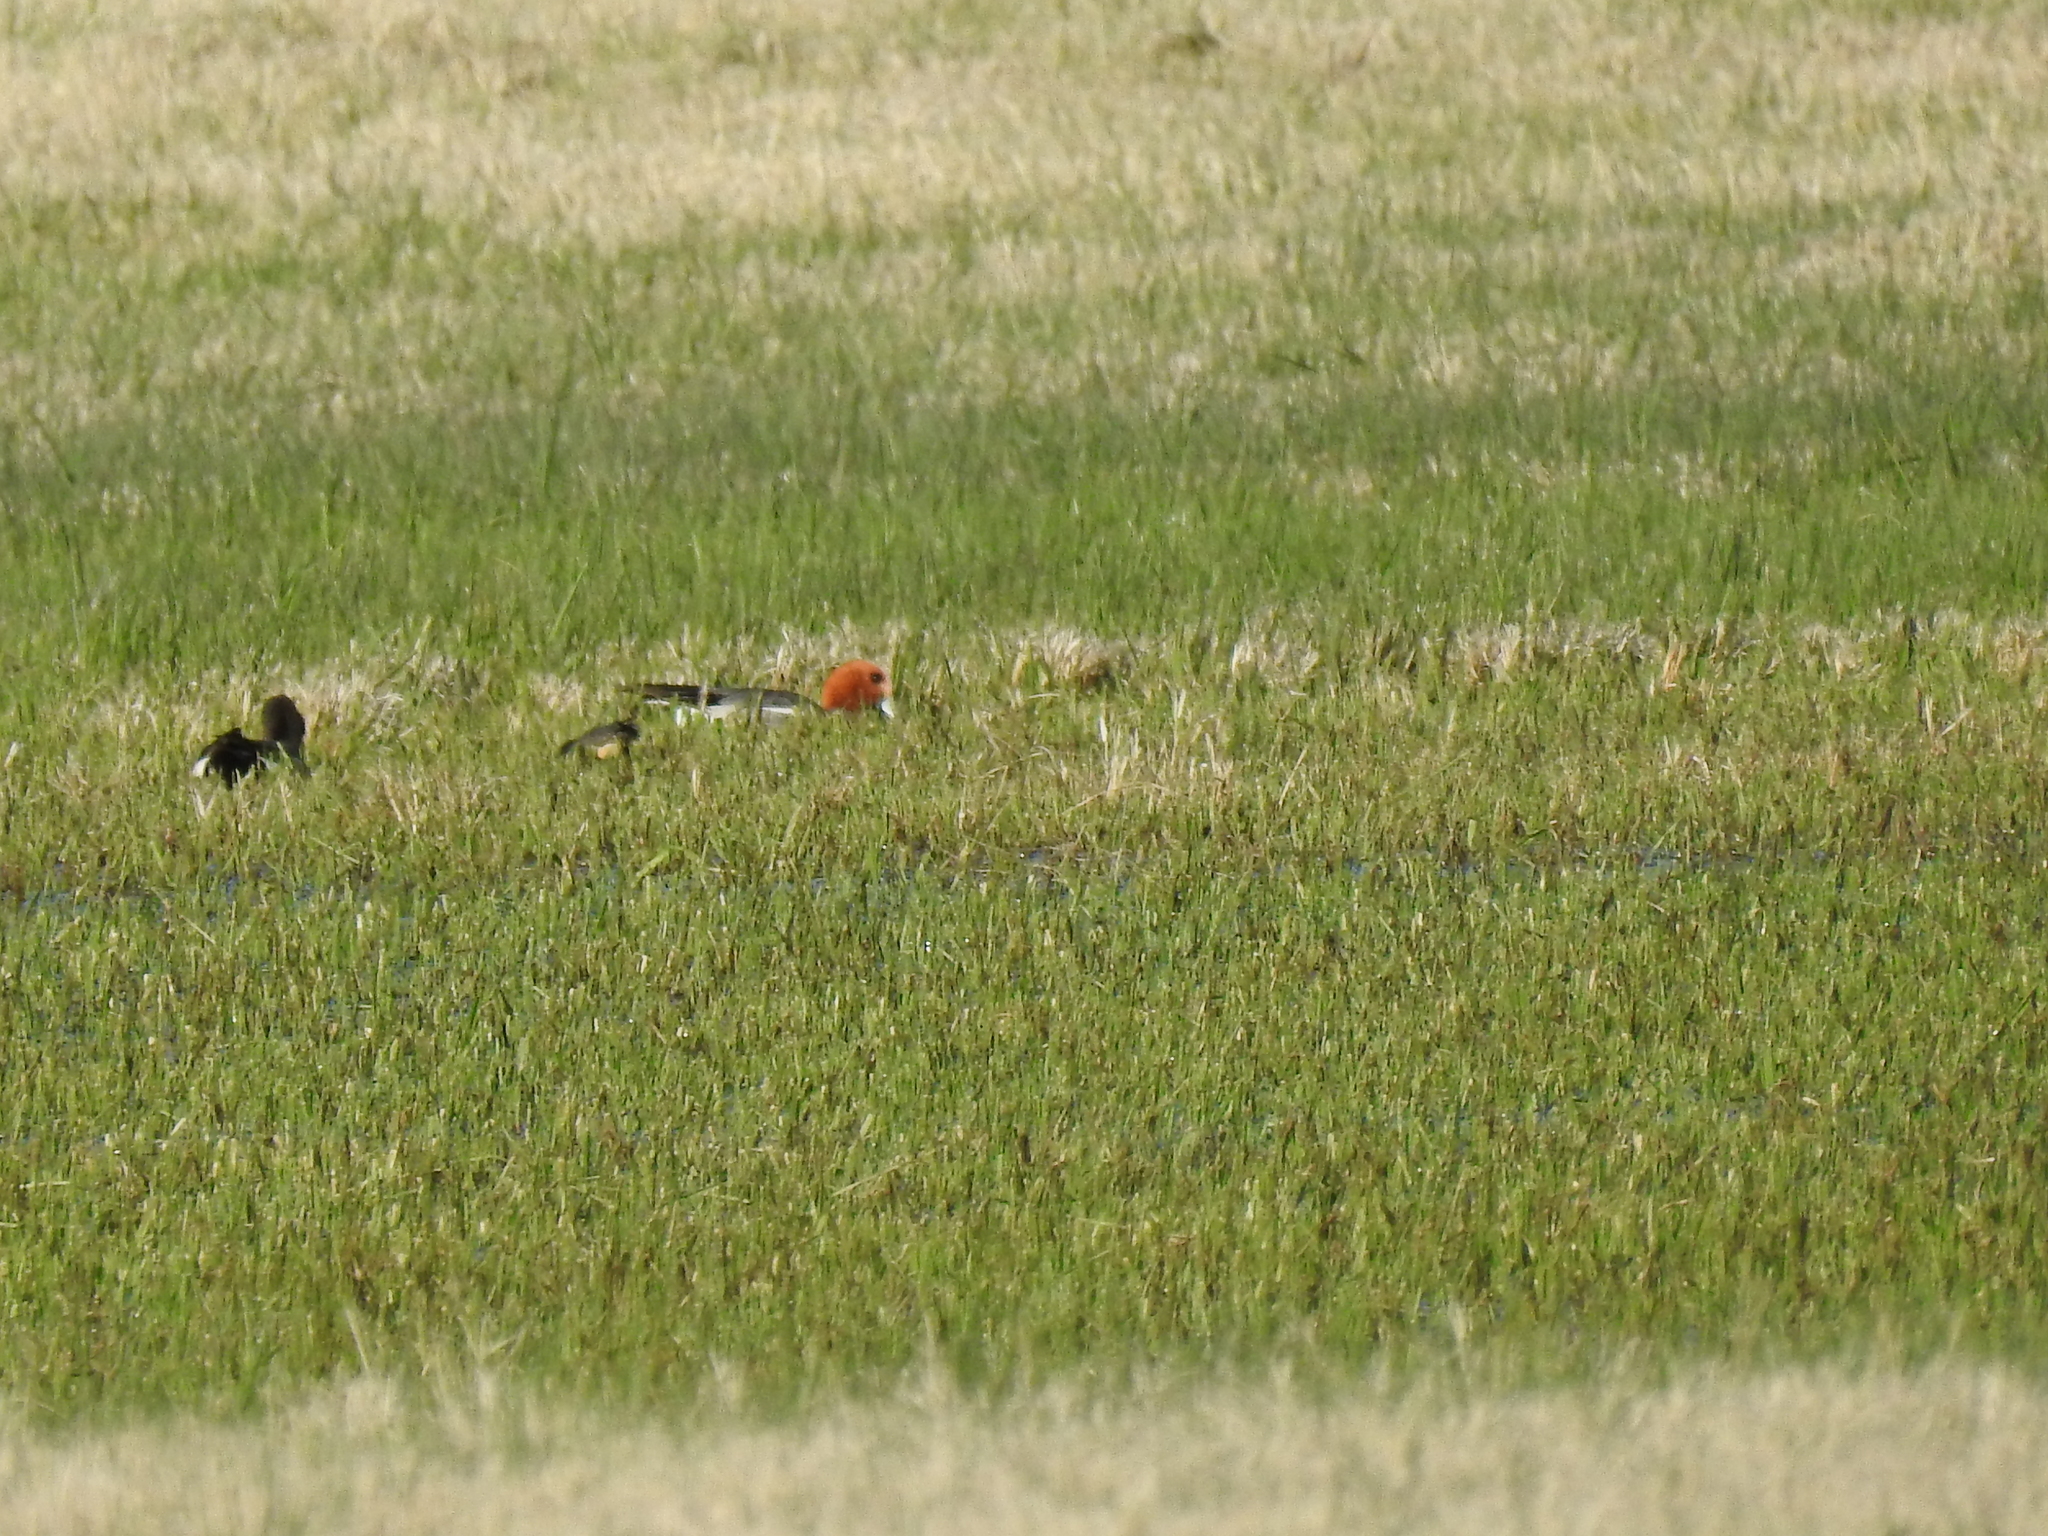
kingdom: Animalia
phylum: Chordata
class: Aves
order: Anseriformes
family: Anatidae
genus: Mareca
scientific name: Mareca penelope
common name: Eurasian wigeon
